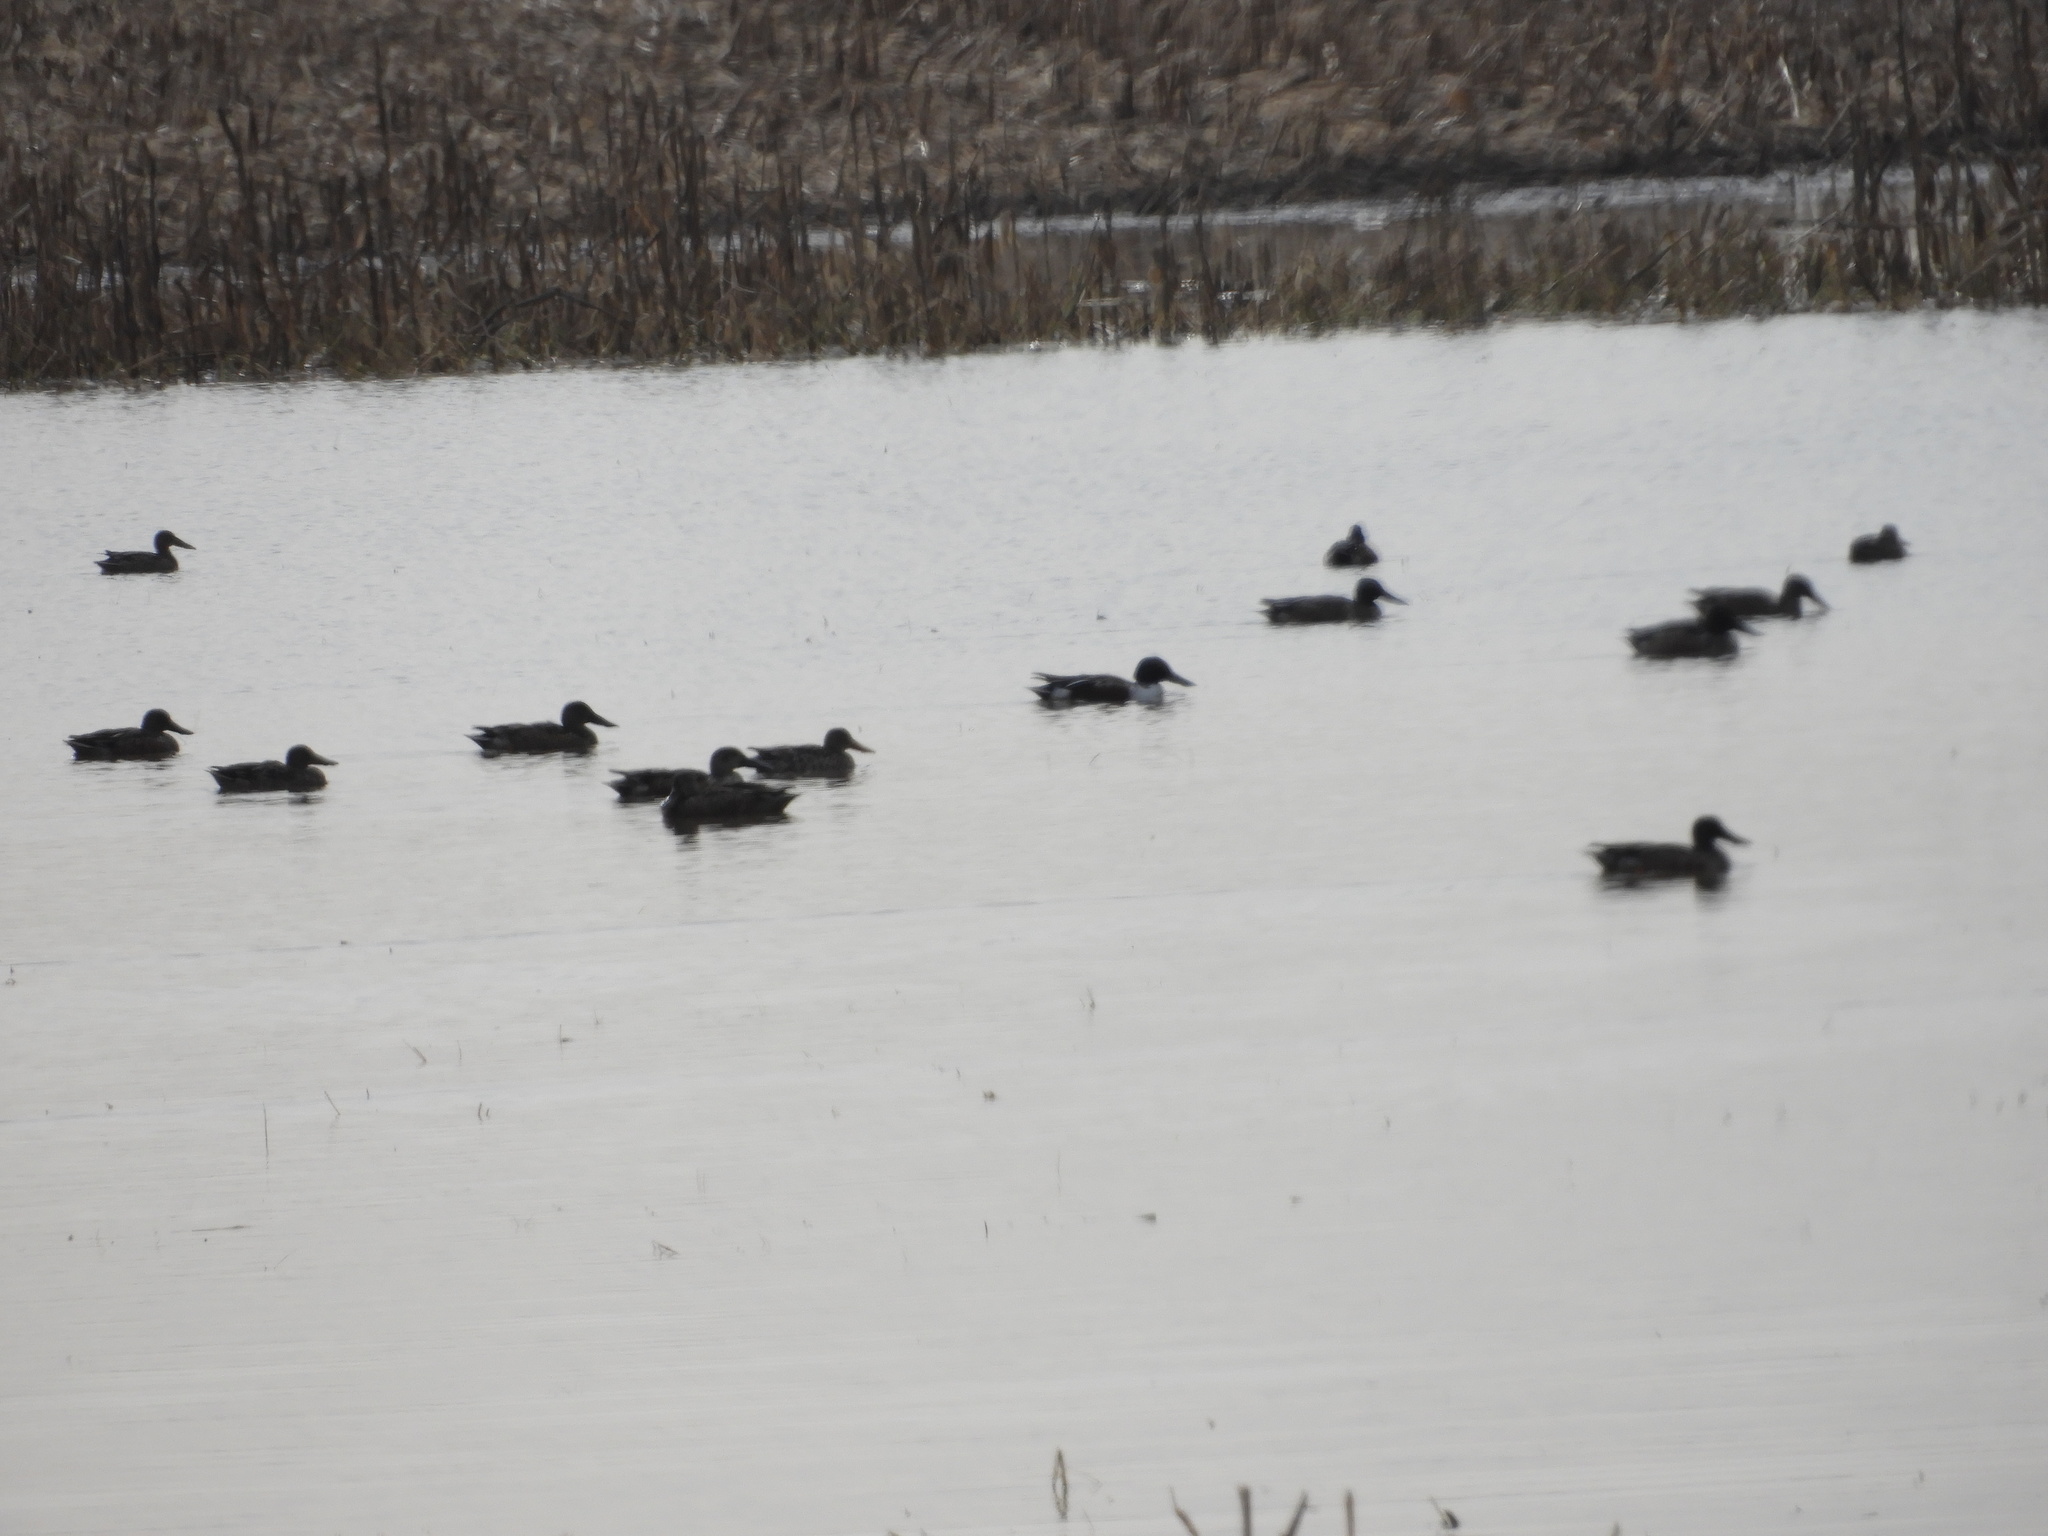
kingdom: Animalia
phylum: Chordata
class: Aves
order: Anseriformes
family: Anatidae
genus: Spatula
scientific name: Spatula clypeata
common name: Northern shoveler
